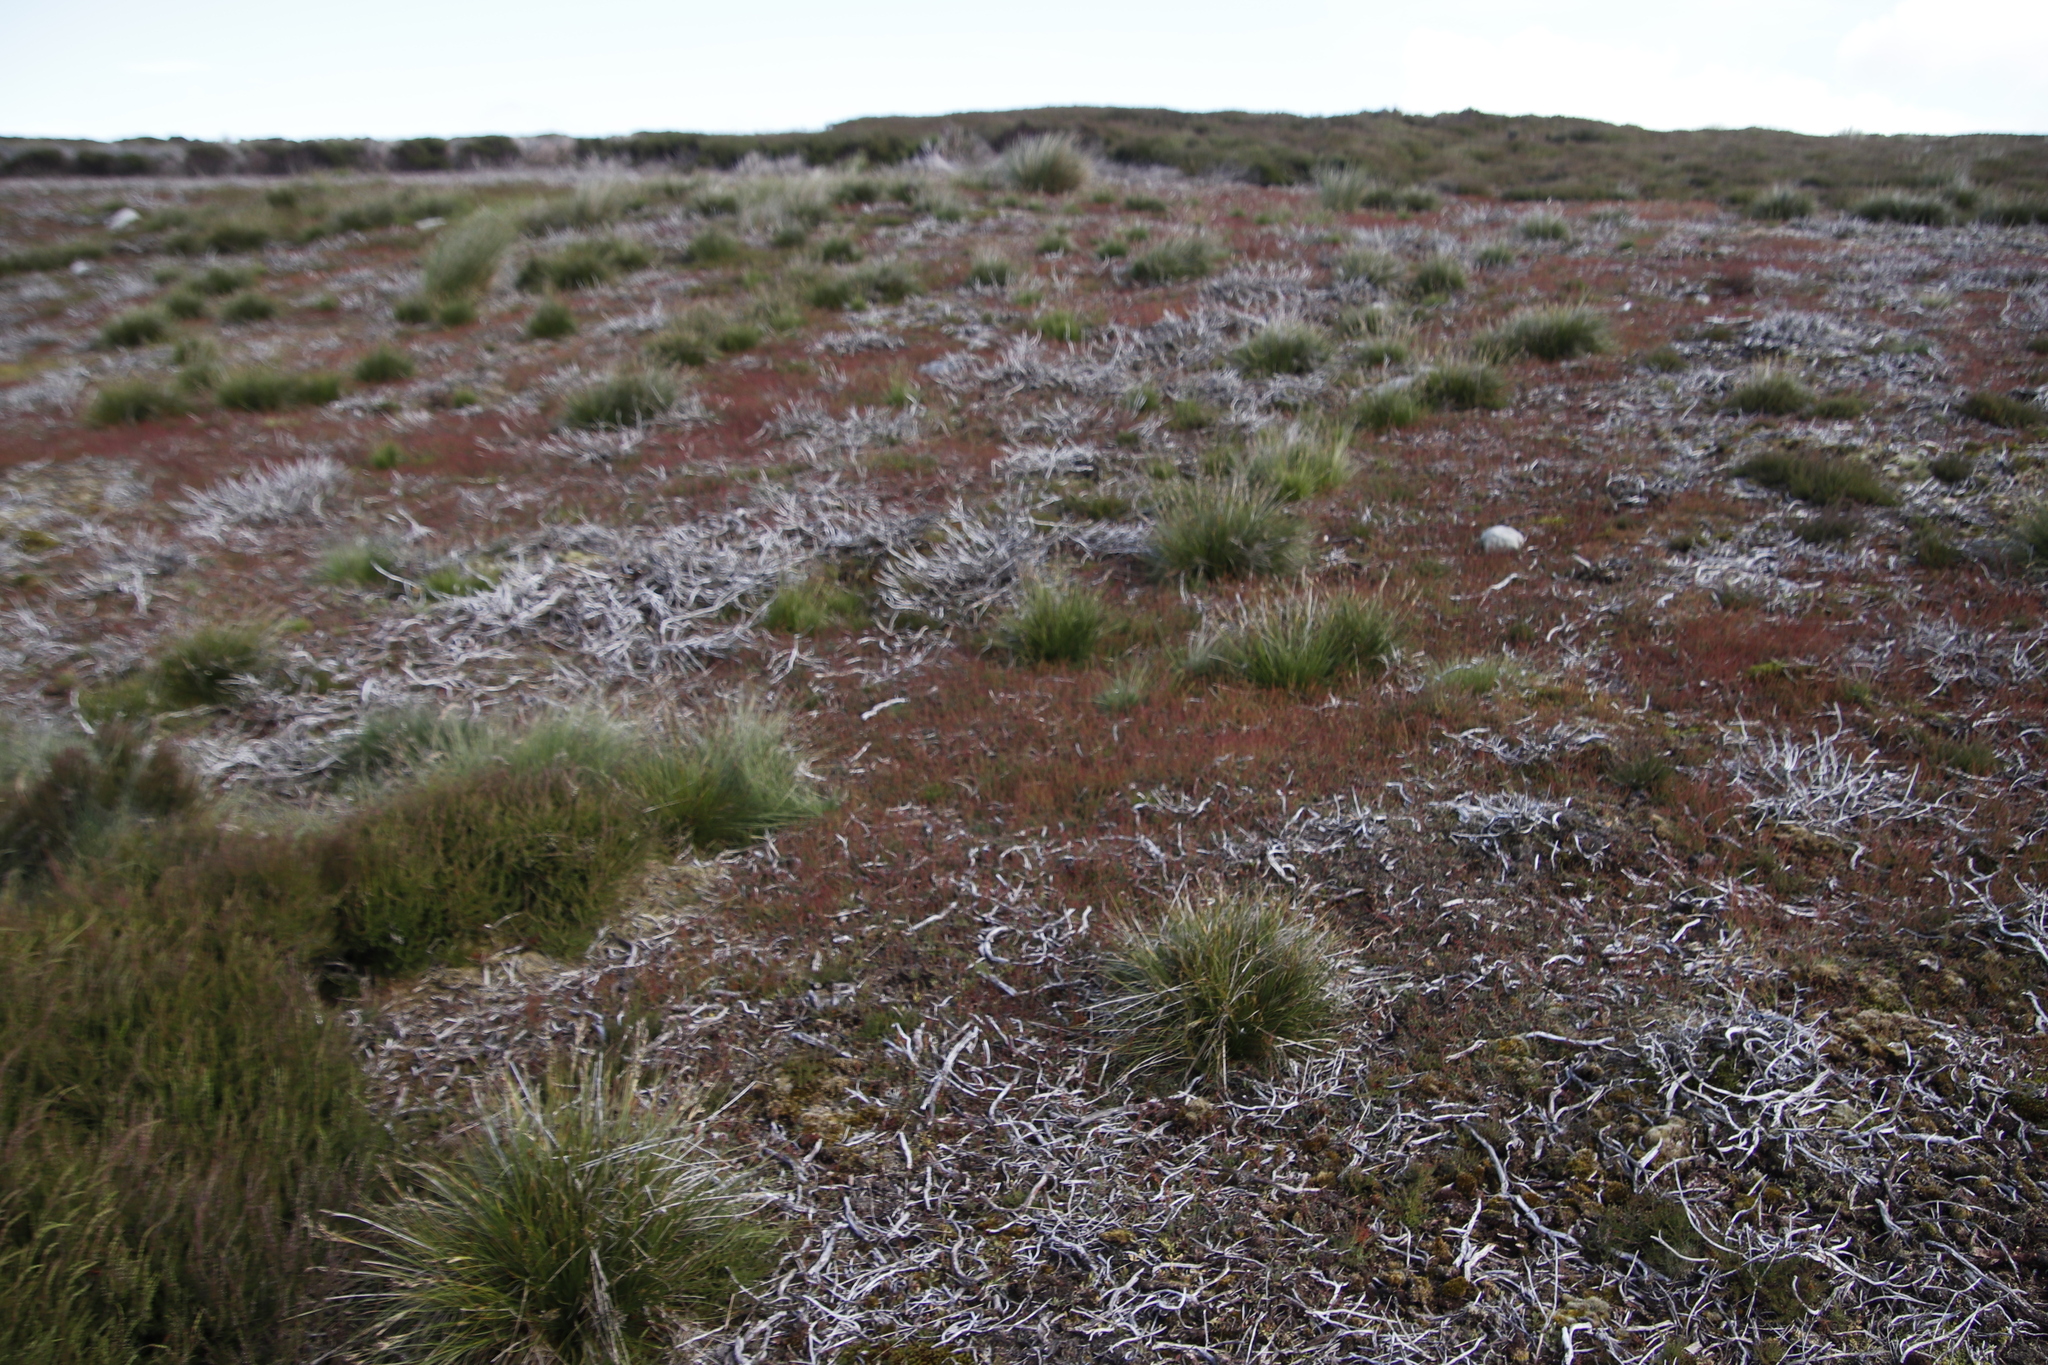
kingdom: Plantae
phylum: Tracheophyta
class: Magnoliopsida
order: Caryophyllales
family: Polygonaceae
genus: Rumex
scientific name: Rumex acetosella
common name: Common sheep sorrel
